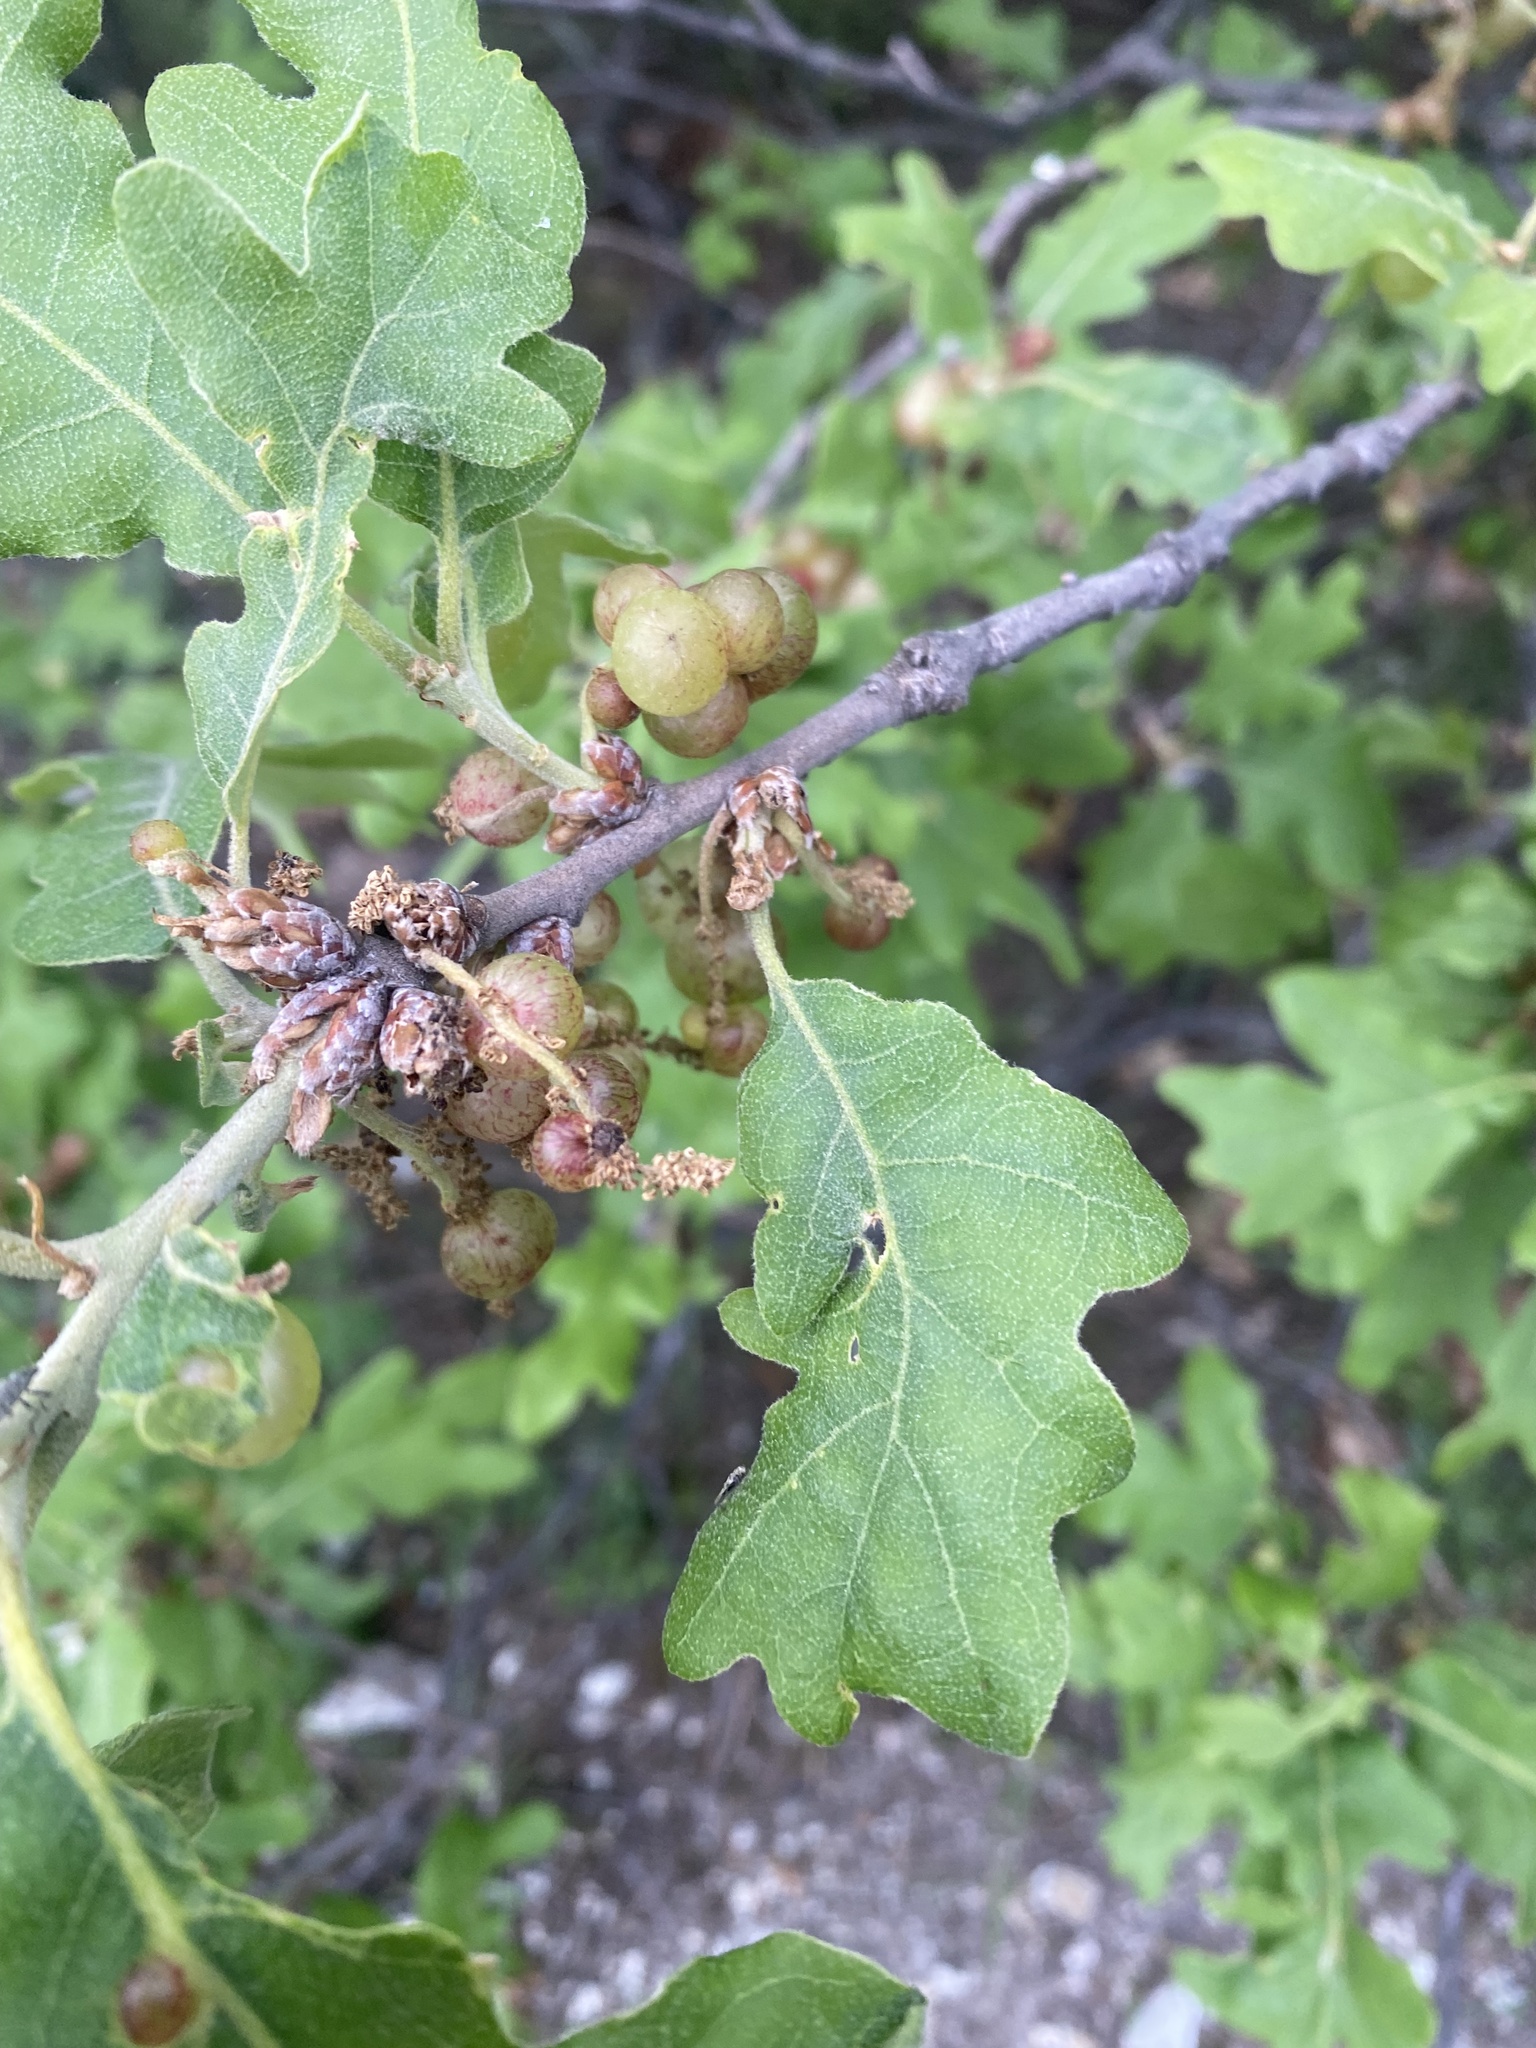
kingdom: Animalia
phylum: Arthropoda
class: Insecta
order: Hymenoptera
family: Cynipidae
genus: Neuroterus
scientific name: Neuroterus quercusbaccarum
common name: Common spangle gall
